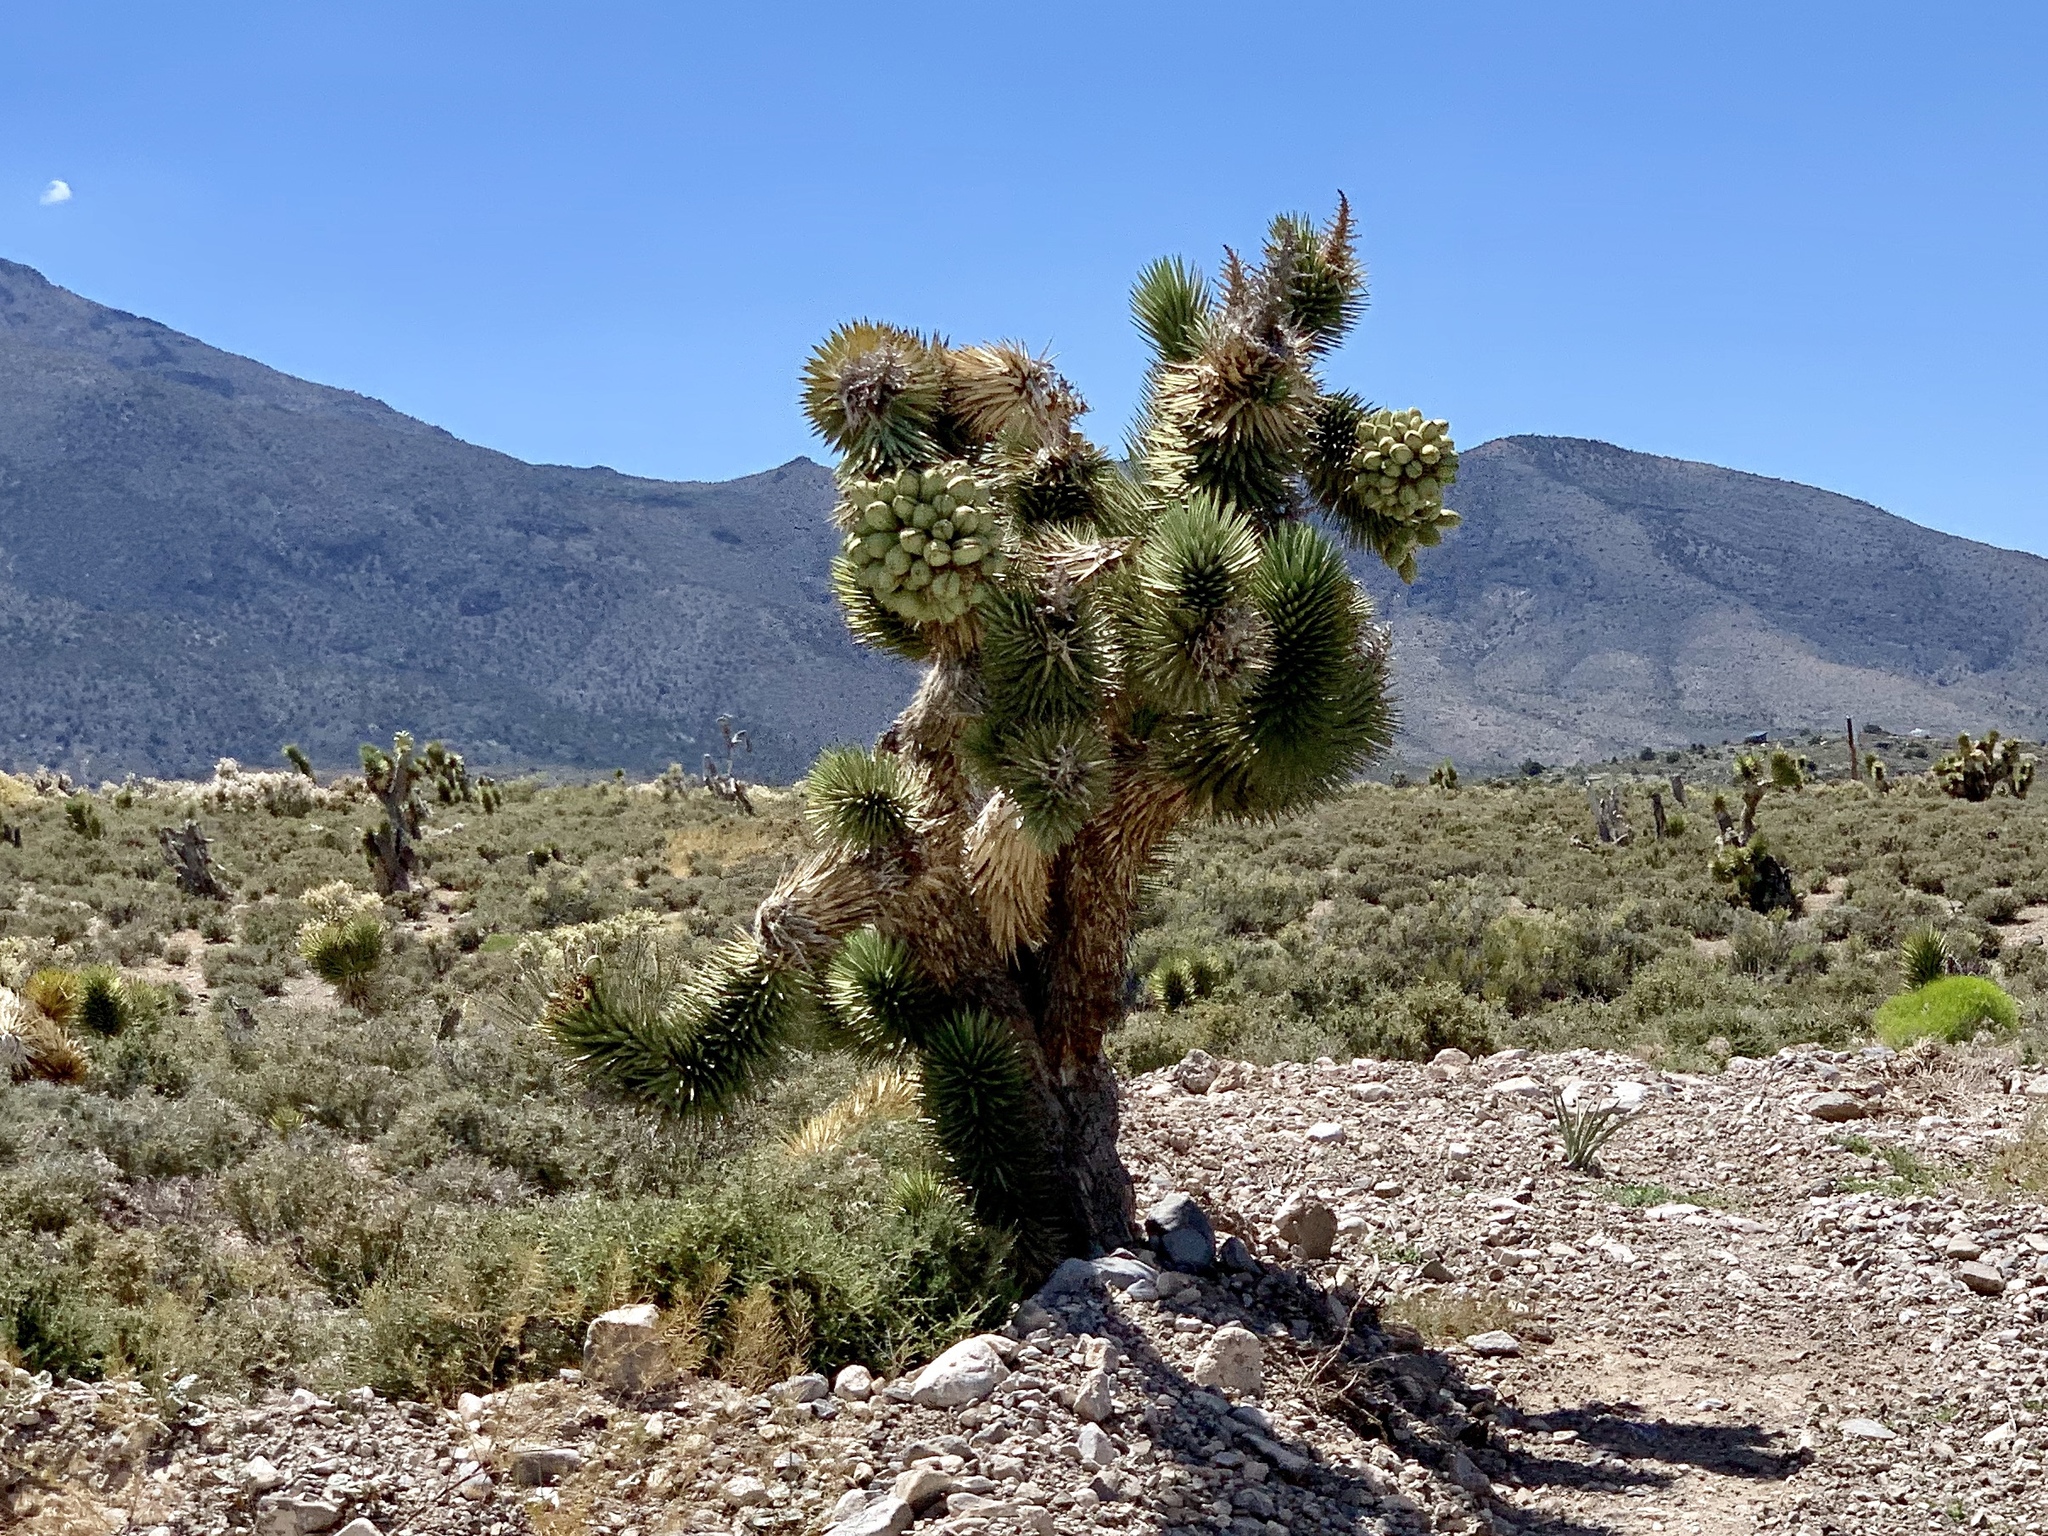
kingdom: Plantae
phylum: Tracheophyta
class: Liliopsida
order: Asparagales
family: Asparagaceae
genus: Yucca
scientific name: Yucca brevifolia
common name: Joshua tree
